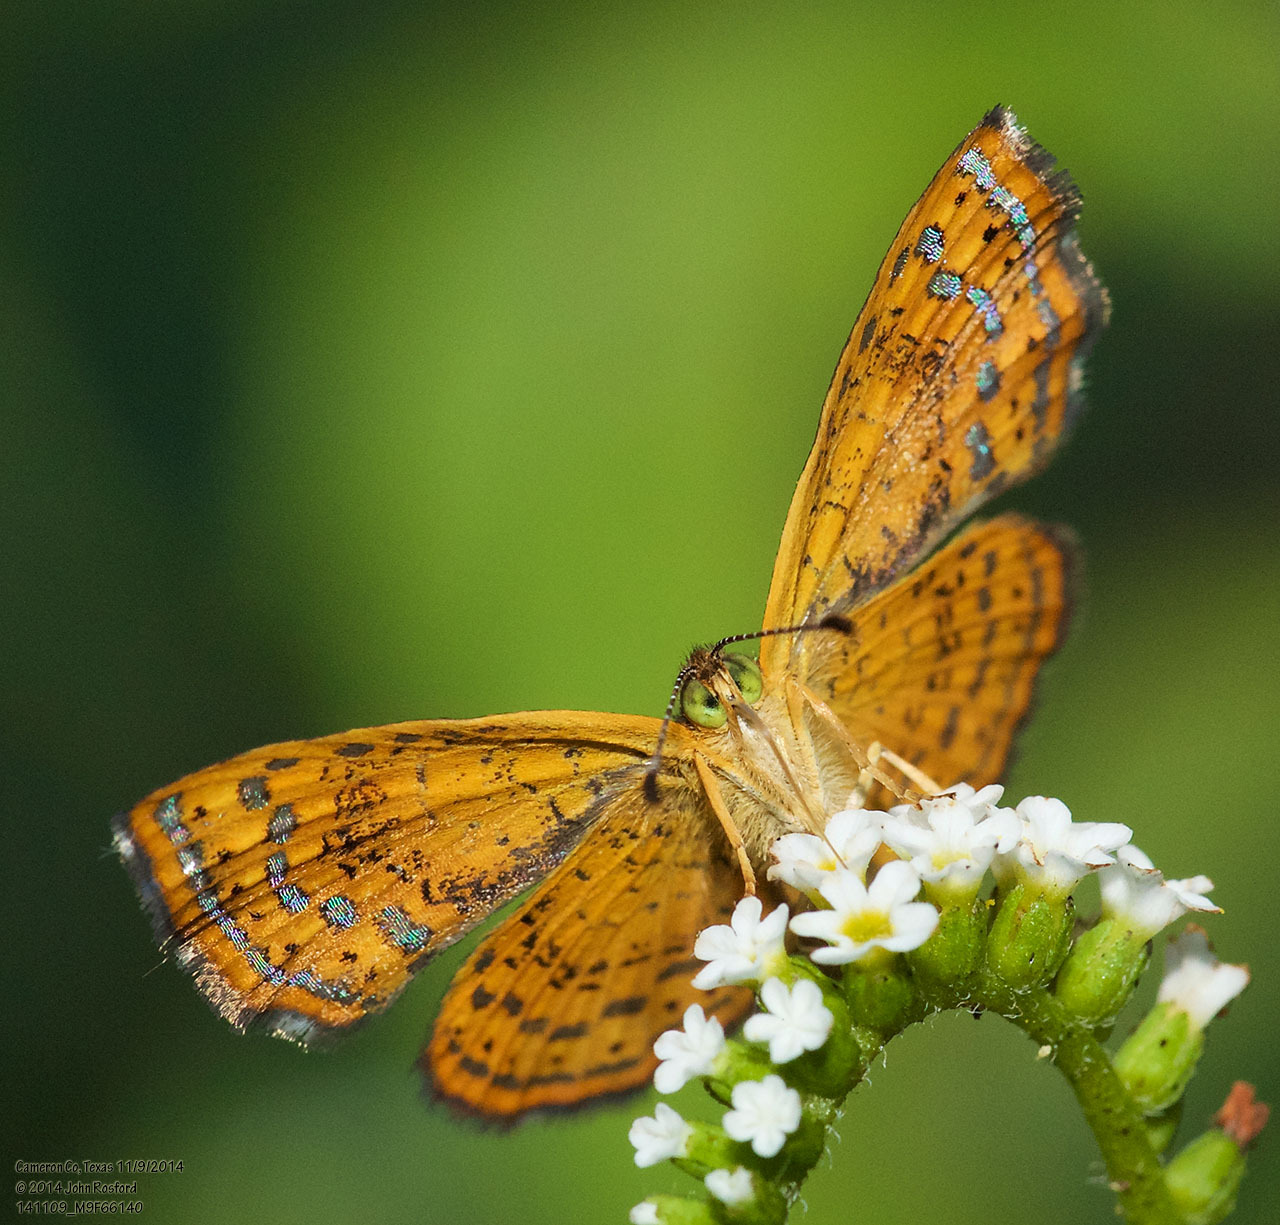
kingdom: Animalia
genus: Calephelis
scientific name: Calephelis perditalis
